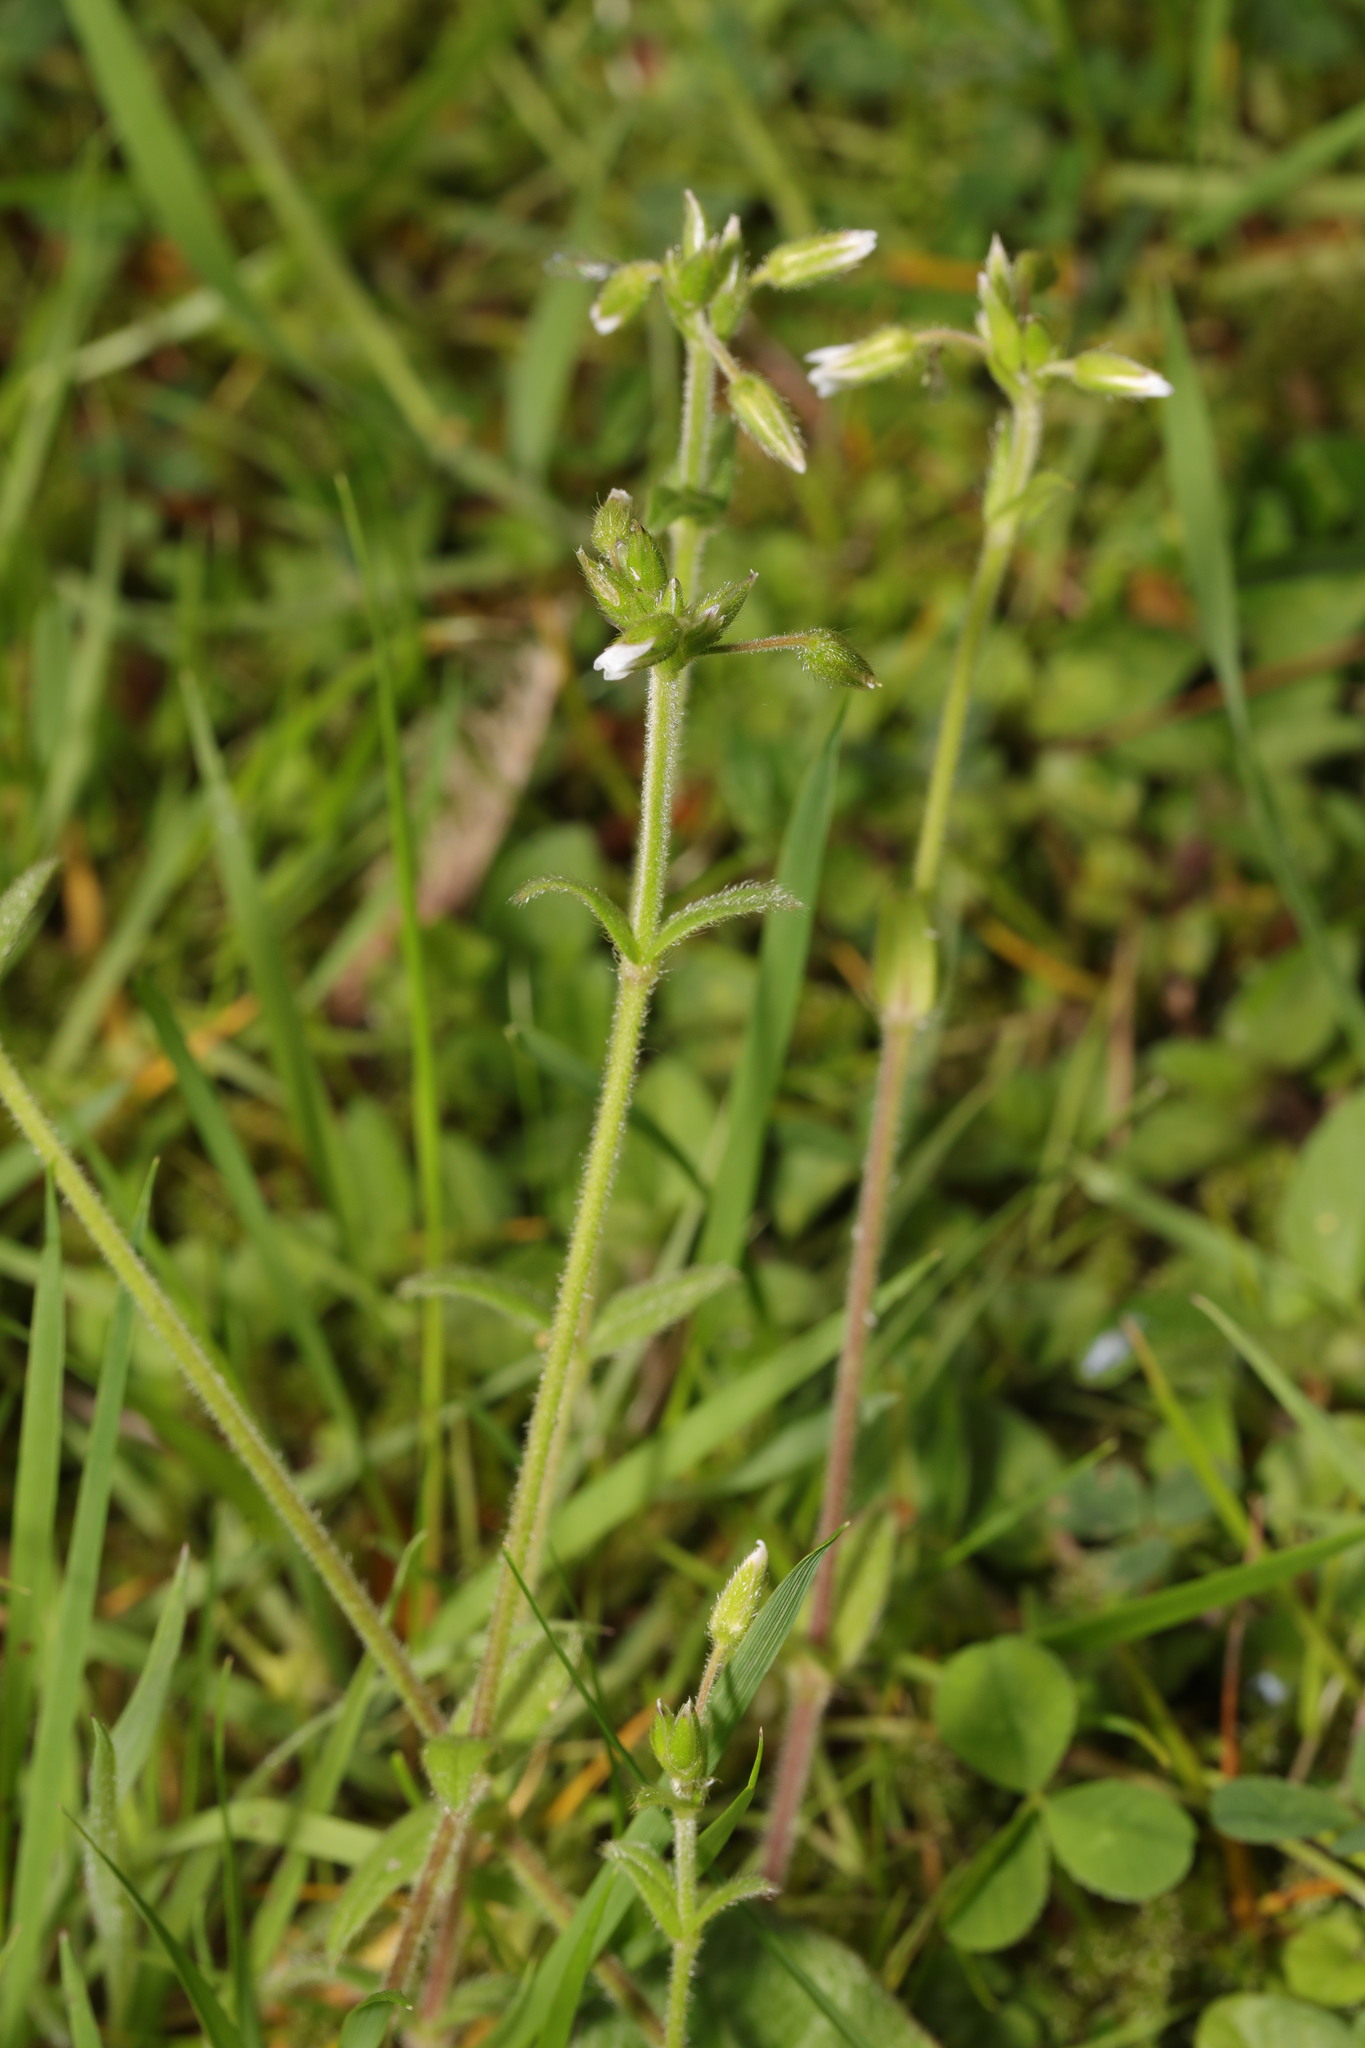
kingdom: Plantae
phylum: Tracheophyta
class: Magnoliopsida
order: Caryophyllales
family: Caryophyllaceae
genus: Cerastium
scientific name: Cerastium fontanum
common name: Common mouse-ear
